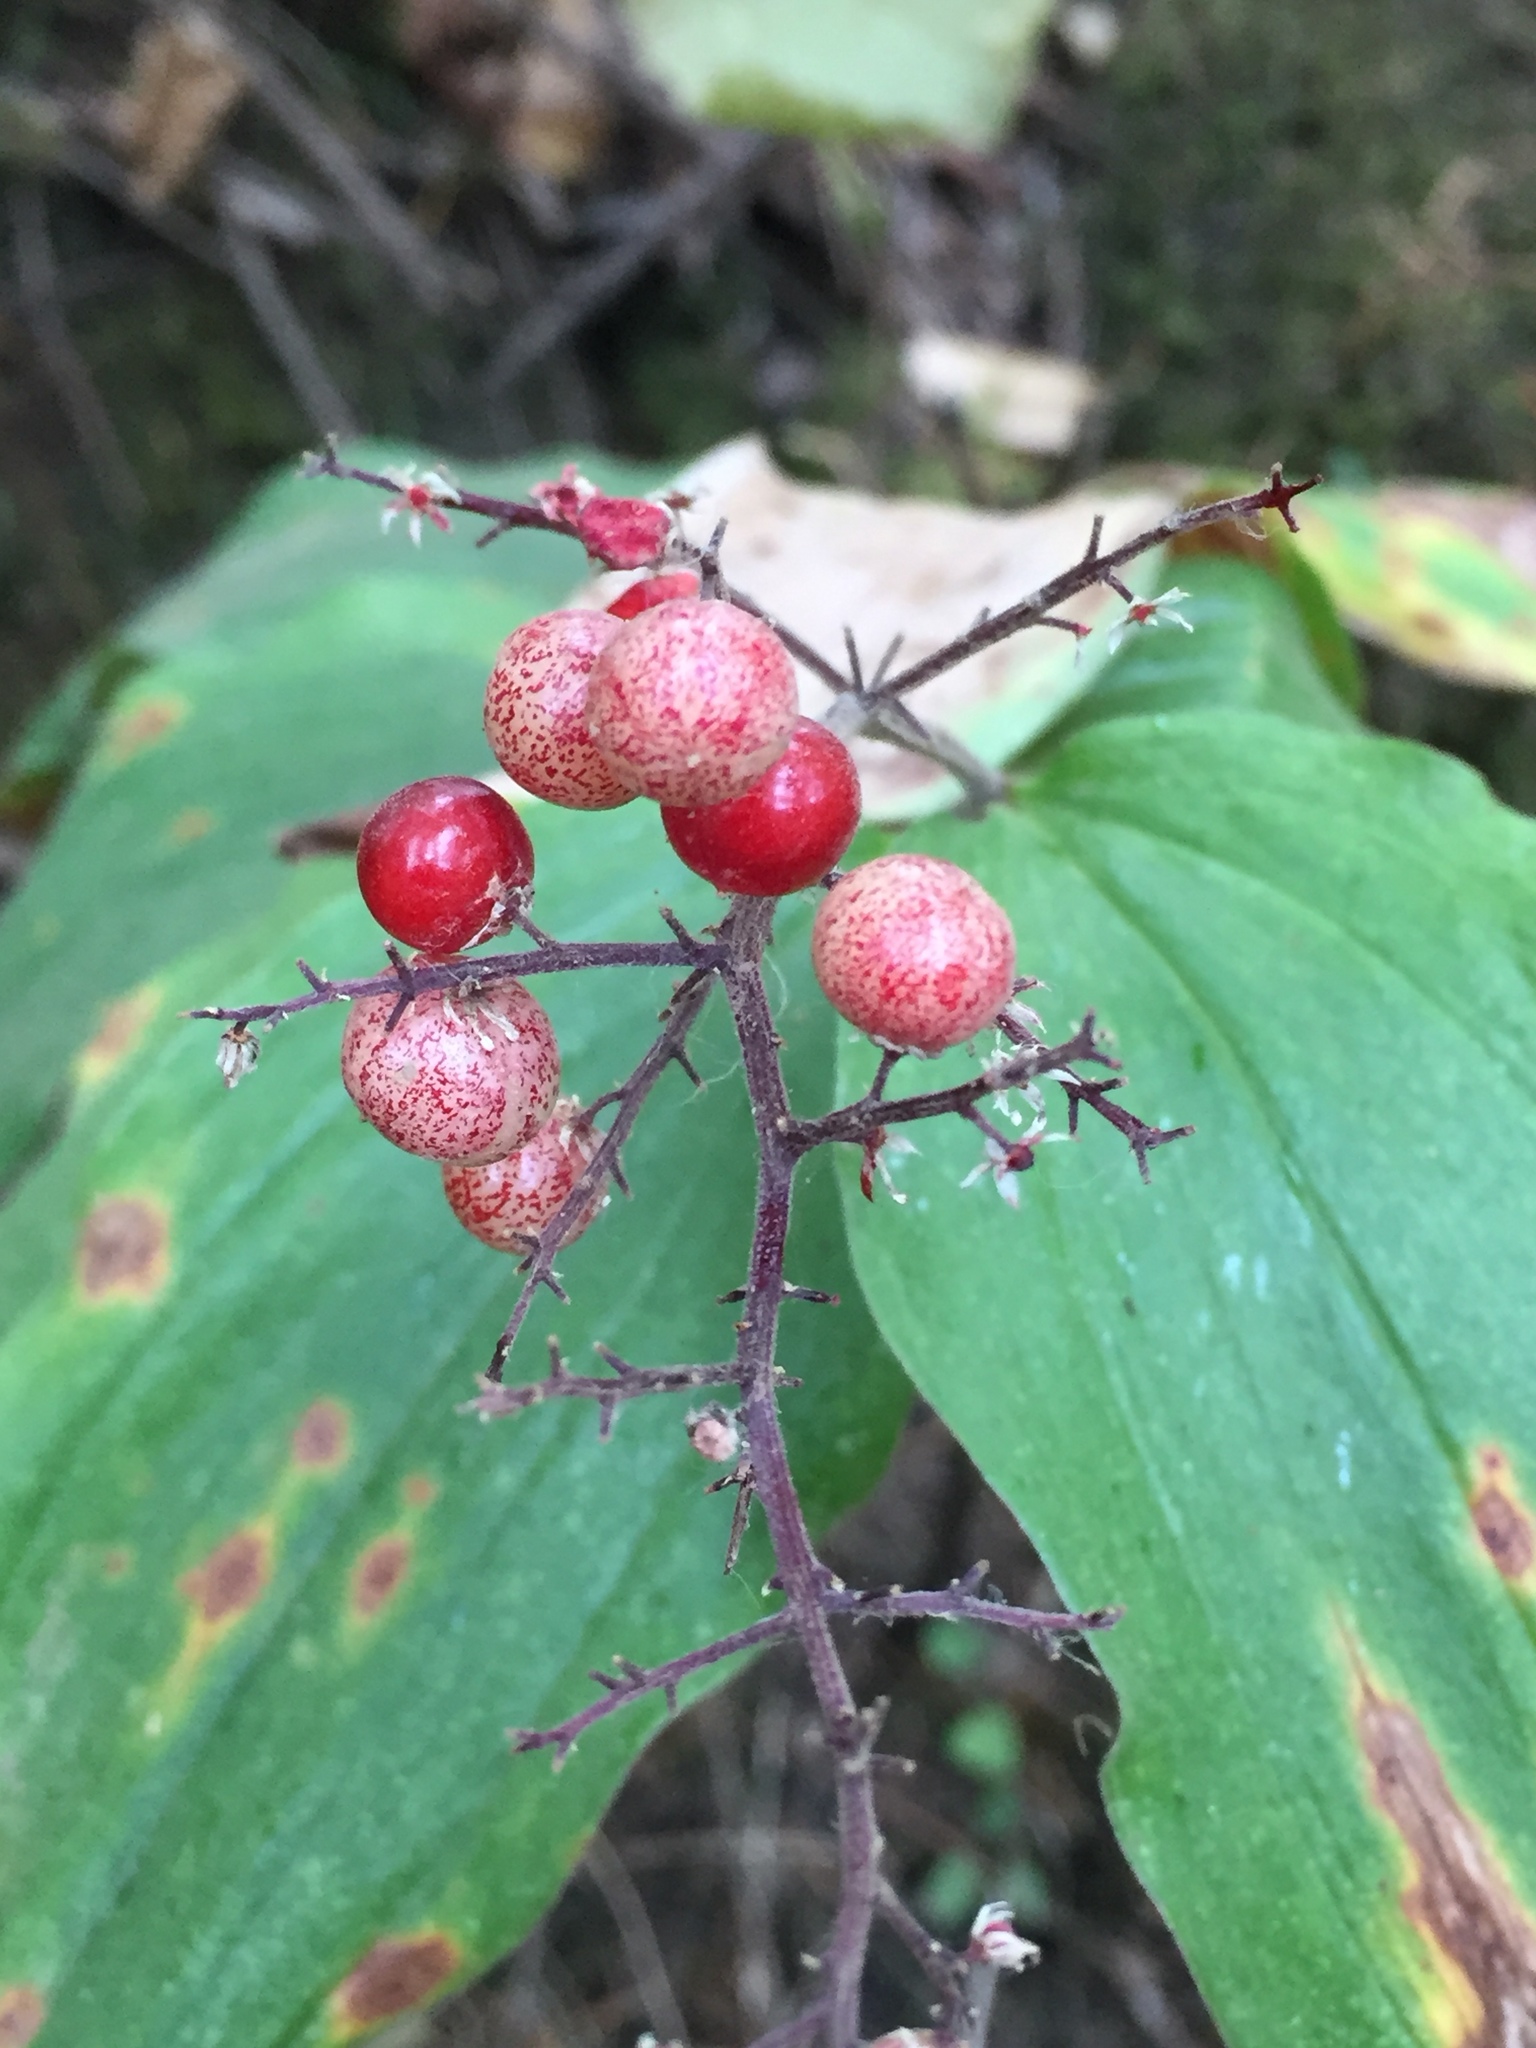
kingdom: Plantae
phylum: Tracheophyta
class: Liliopsida
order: Asparagales
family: Asparagaceae
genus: Maianthemum
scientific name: Maianthemum racemosum
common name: False spikenard
